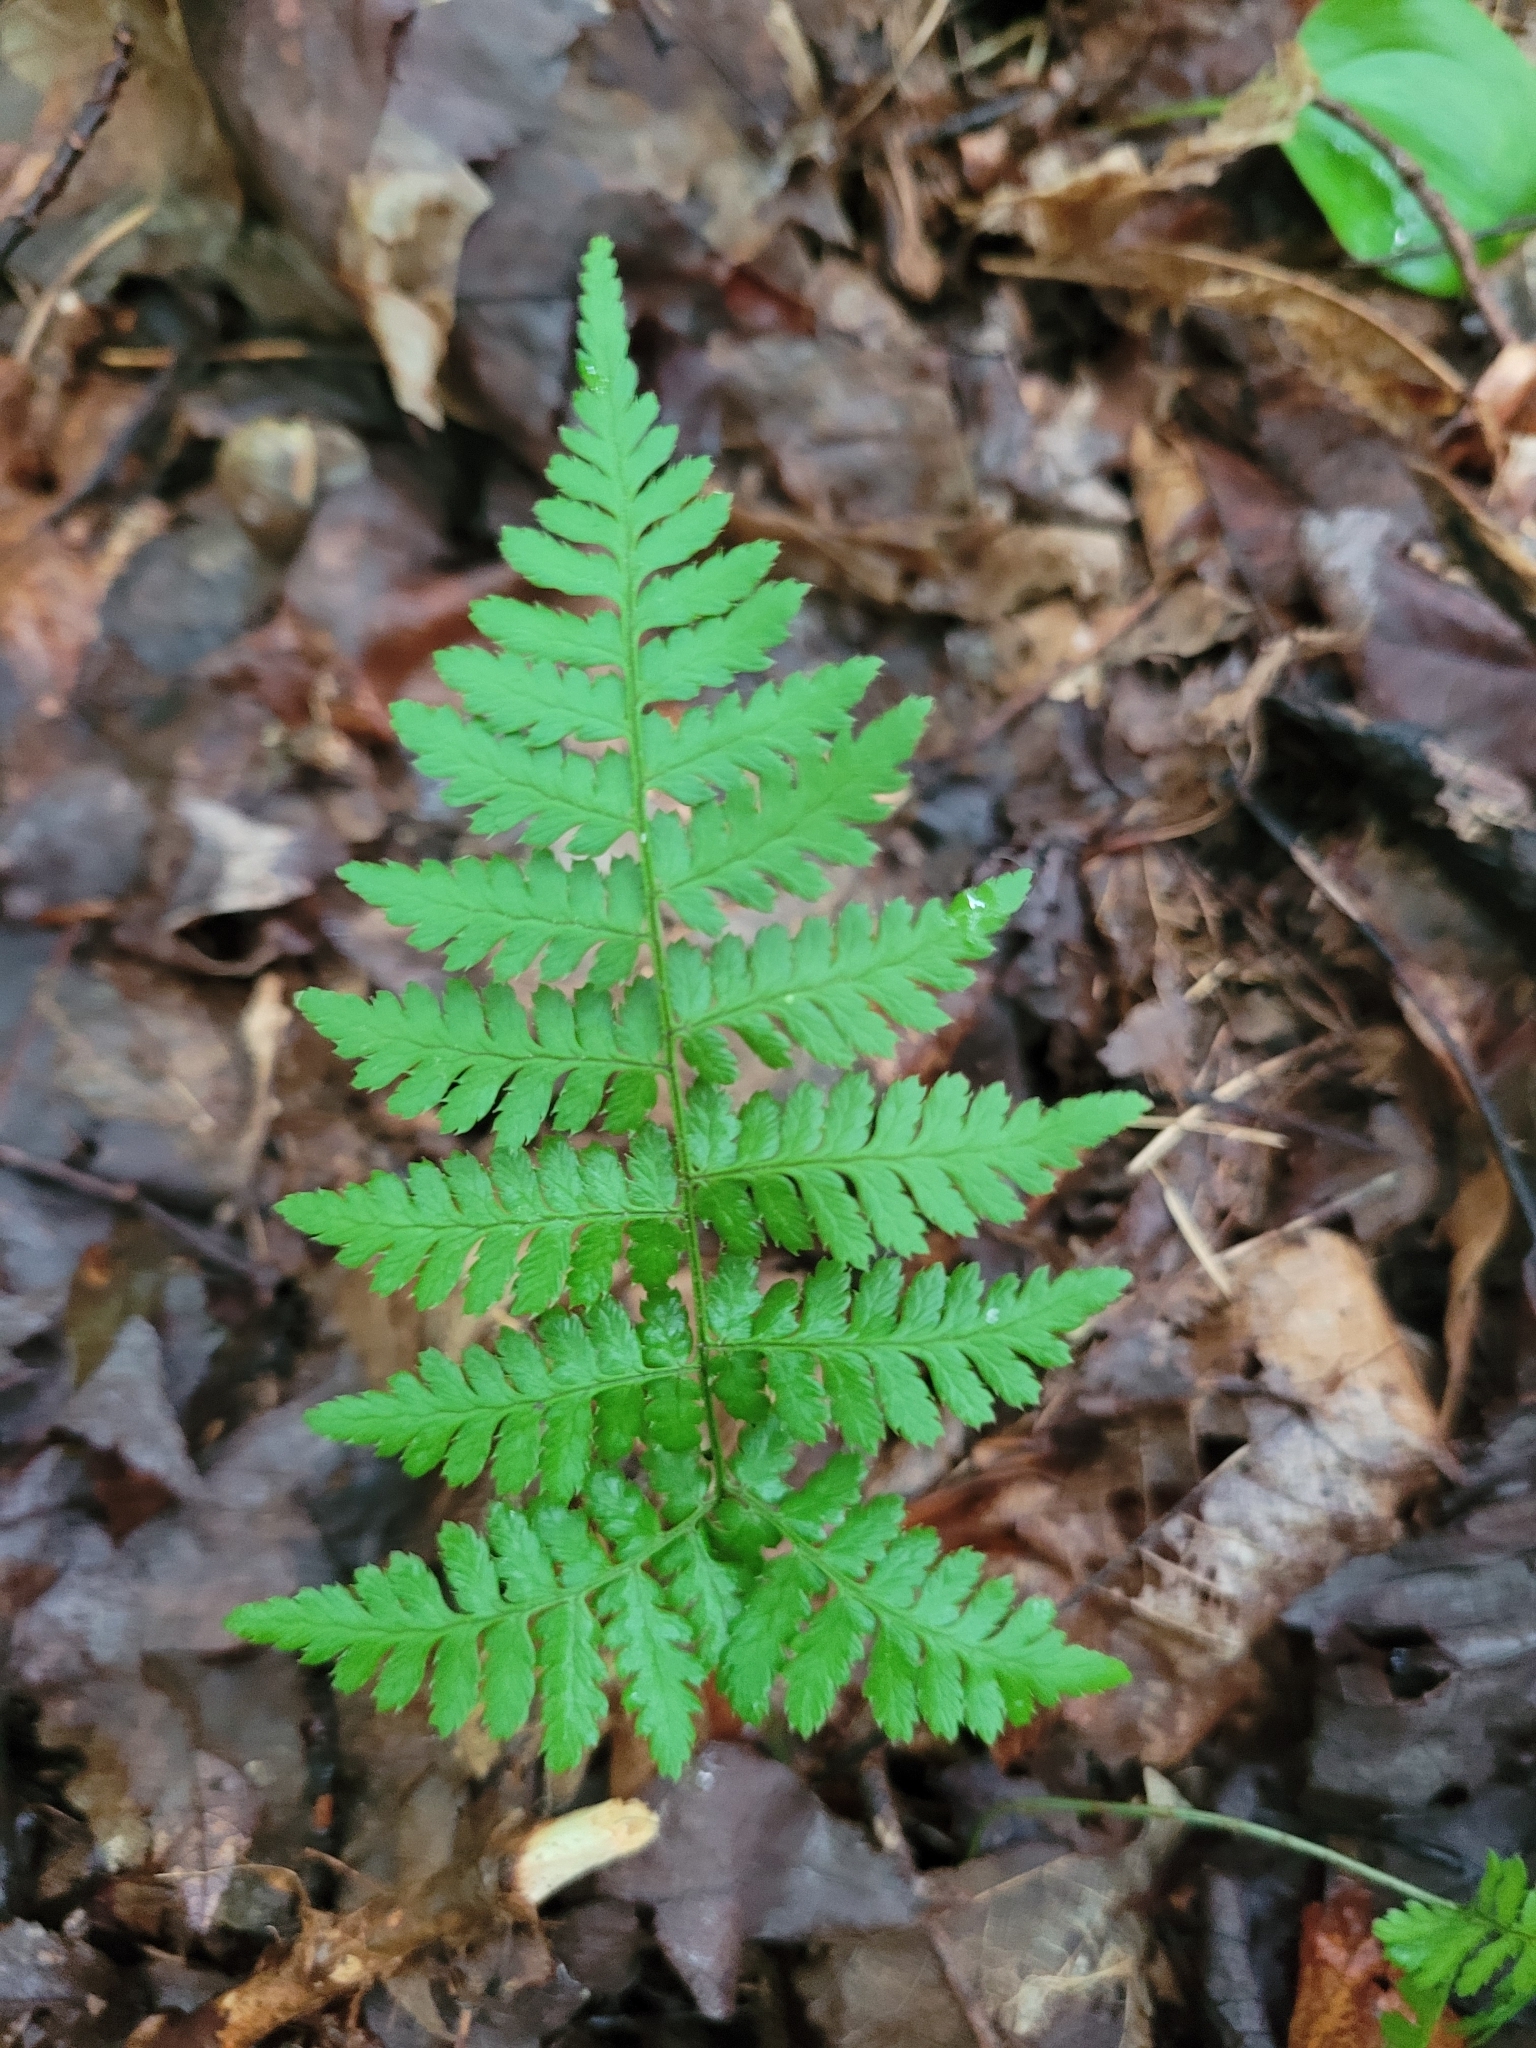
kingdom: Plantae
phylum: Tracheophyta
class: Polypodiopsida
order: Polypodiales
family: Dryopteridaceae
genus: Dryopteris
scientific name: Dryopteris intermedia
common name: Evergreen wood fern
